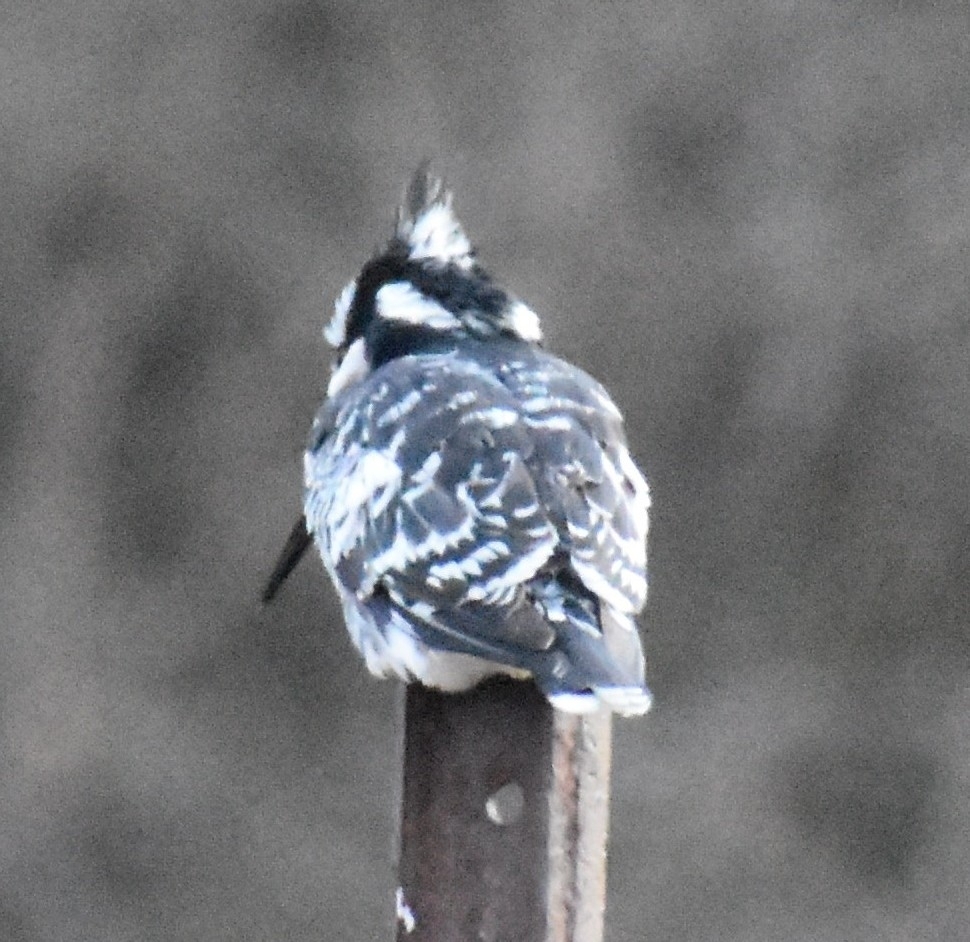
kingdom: Animalia
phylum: Chordata
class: Aves
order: Coraciiformes
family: Alcedinidae
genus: Ceryle
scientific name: Ceryle rudis
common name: Pied kingfisher
